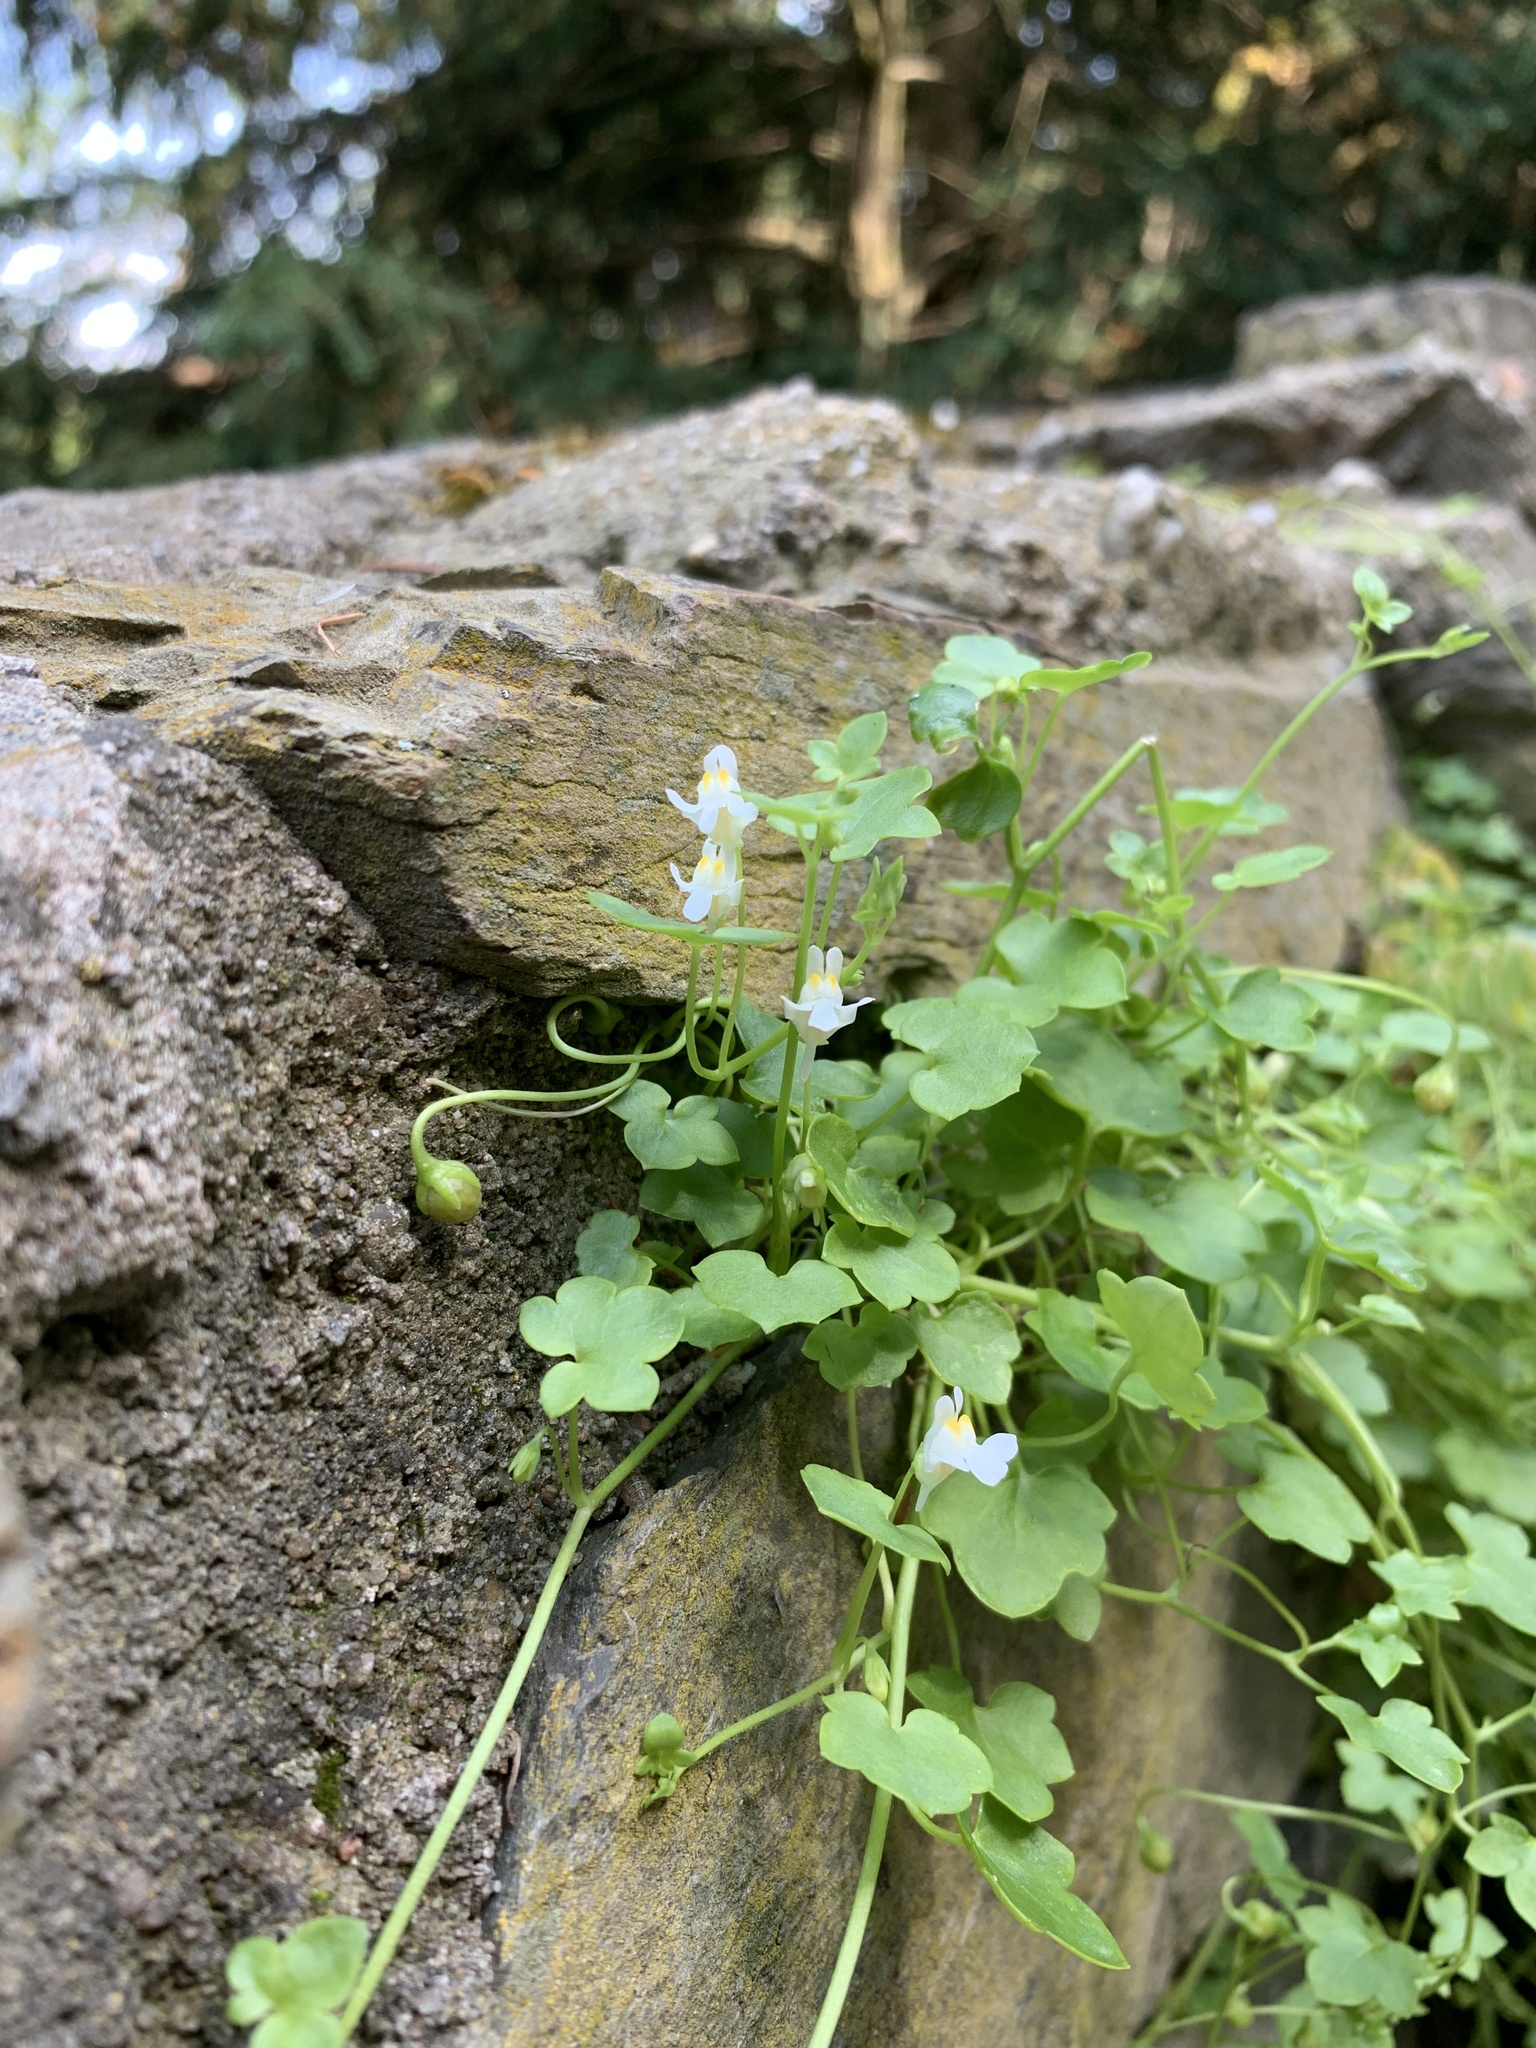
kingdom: Plantae
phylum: Tracheophyta
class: Magnoliopsida
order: Lamiales
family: Plantaginaceae
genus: Cymbalaria
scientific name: Cymbalaria muralis
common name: Ivy-leaved toadflax
